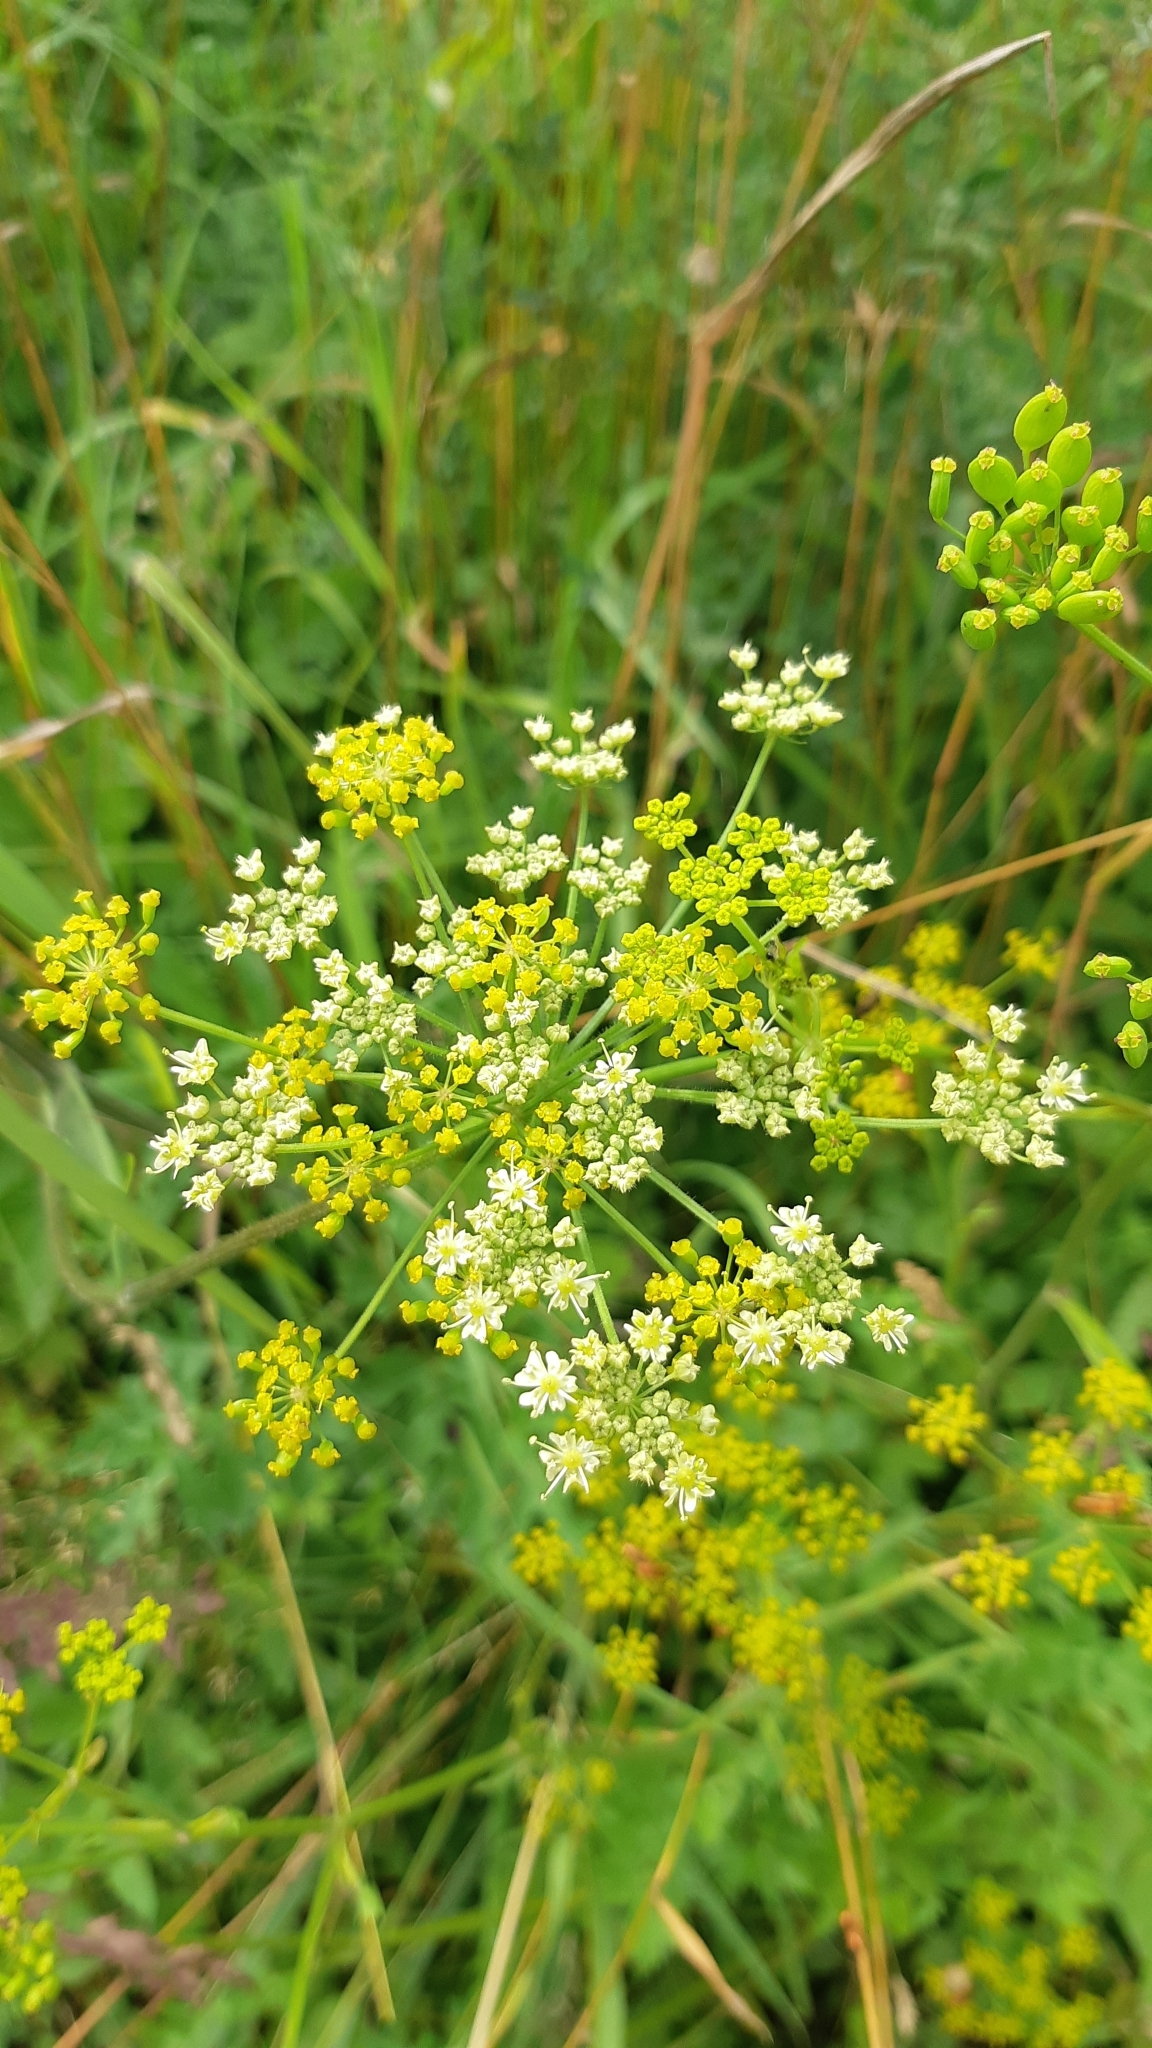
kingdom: Plantae
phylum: Tracheophyta
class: Magnoliopsida
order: Apiales
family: Apiaceae
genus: Pastinaca
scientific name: Pastinaca sativa
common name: Wild parsnip
